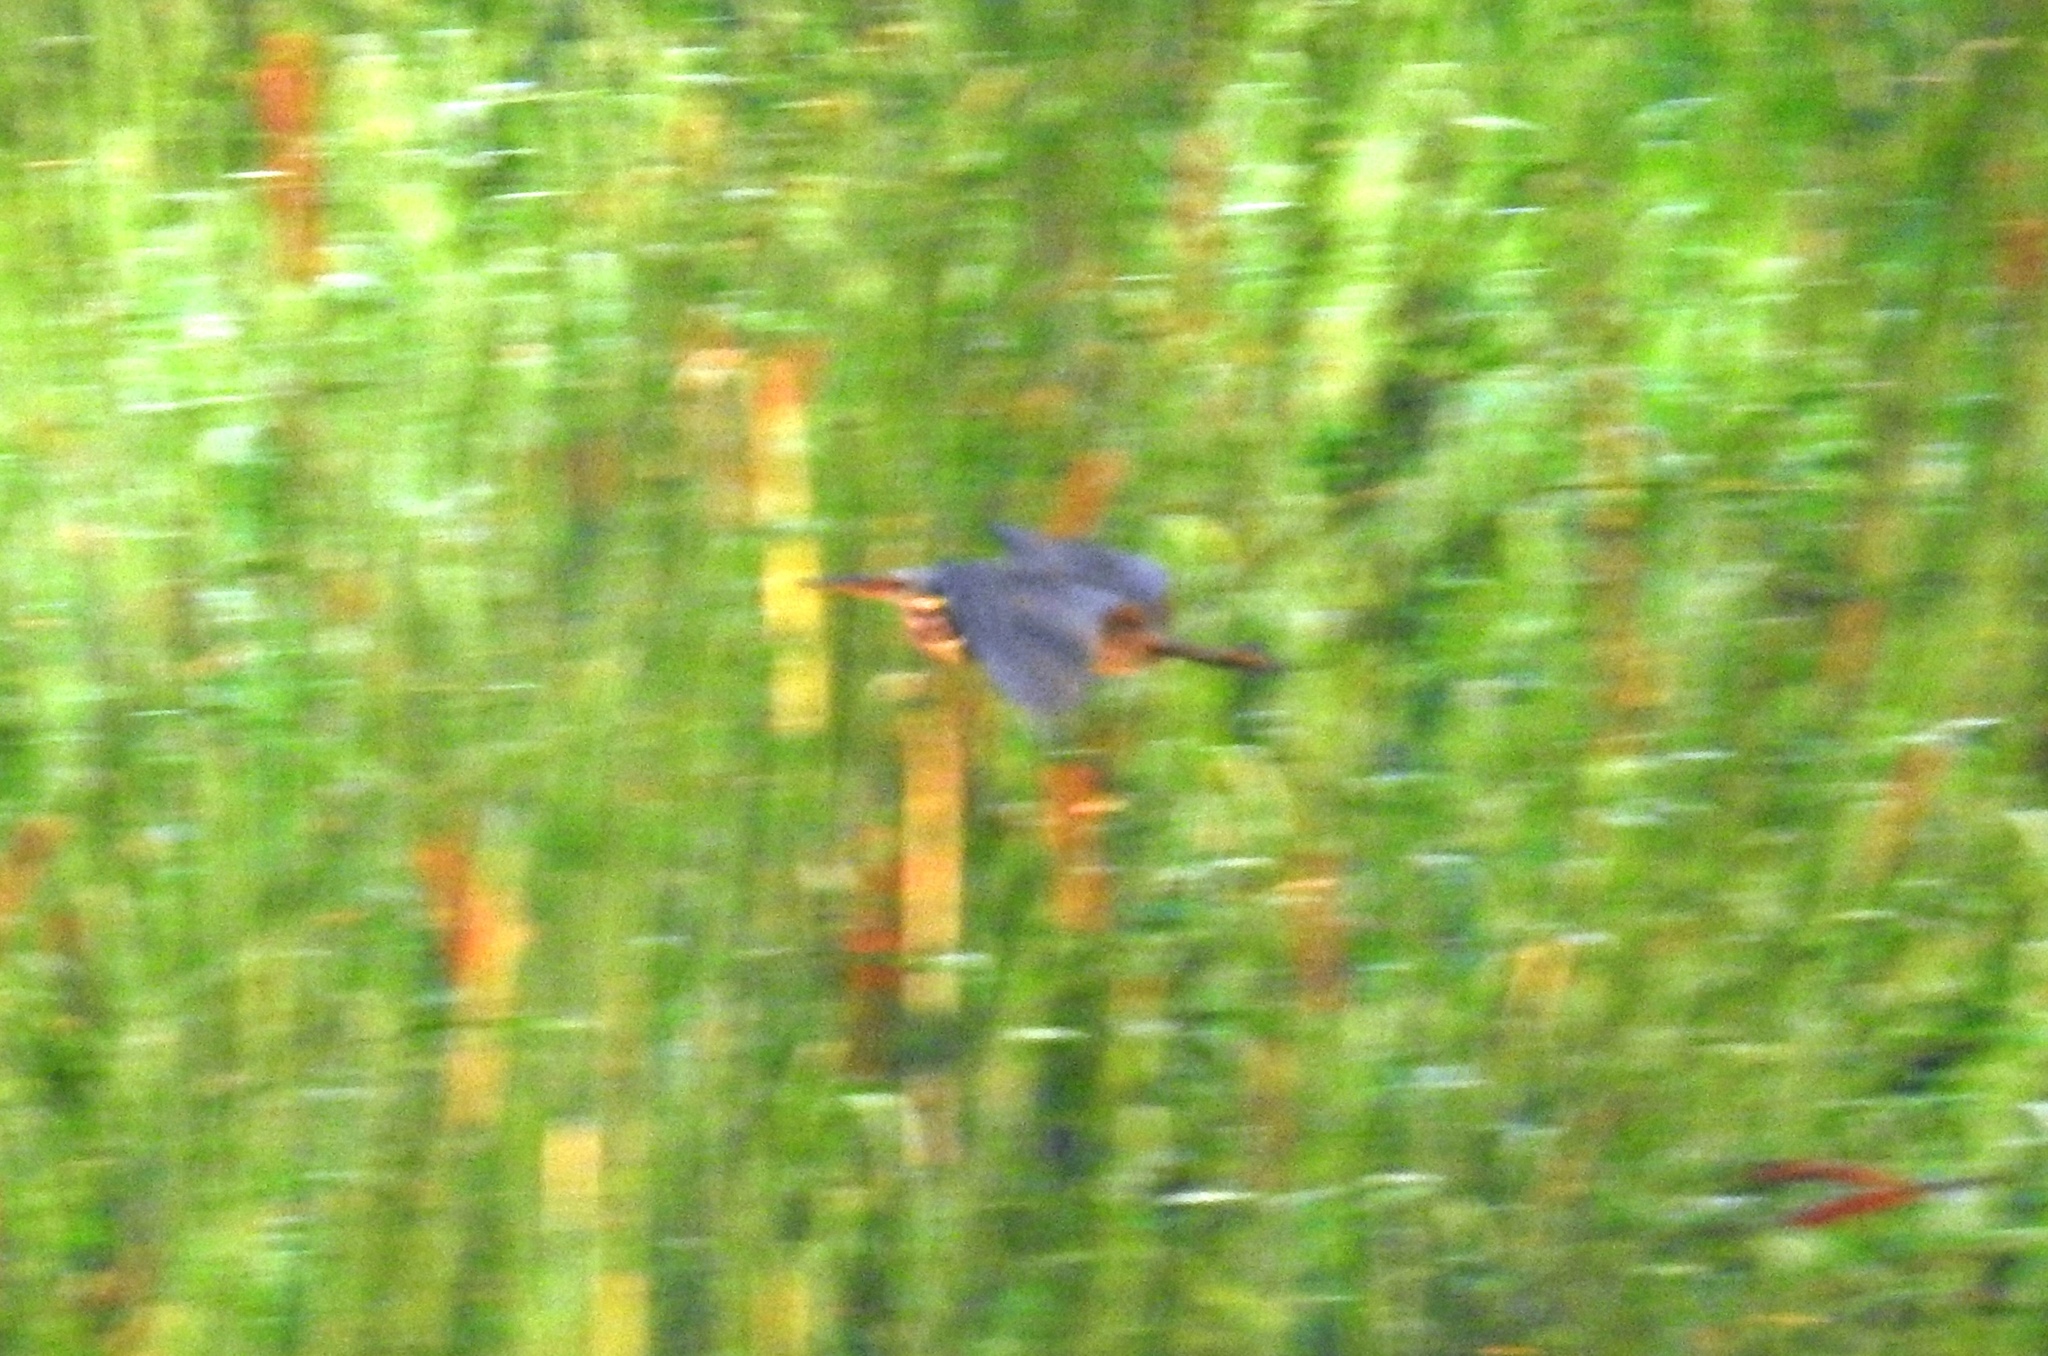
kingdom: Animalia
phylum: Chordata
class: Aves
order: Pelecaniformes
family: Ardeidae
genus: Dupetor
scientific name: Dupetor flavicollis
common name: Black bittern
